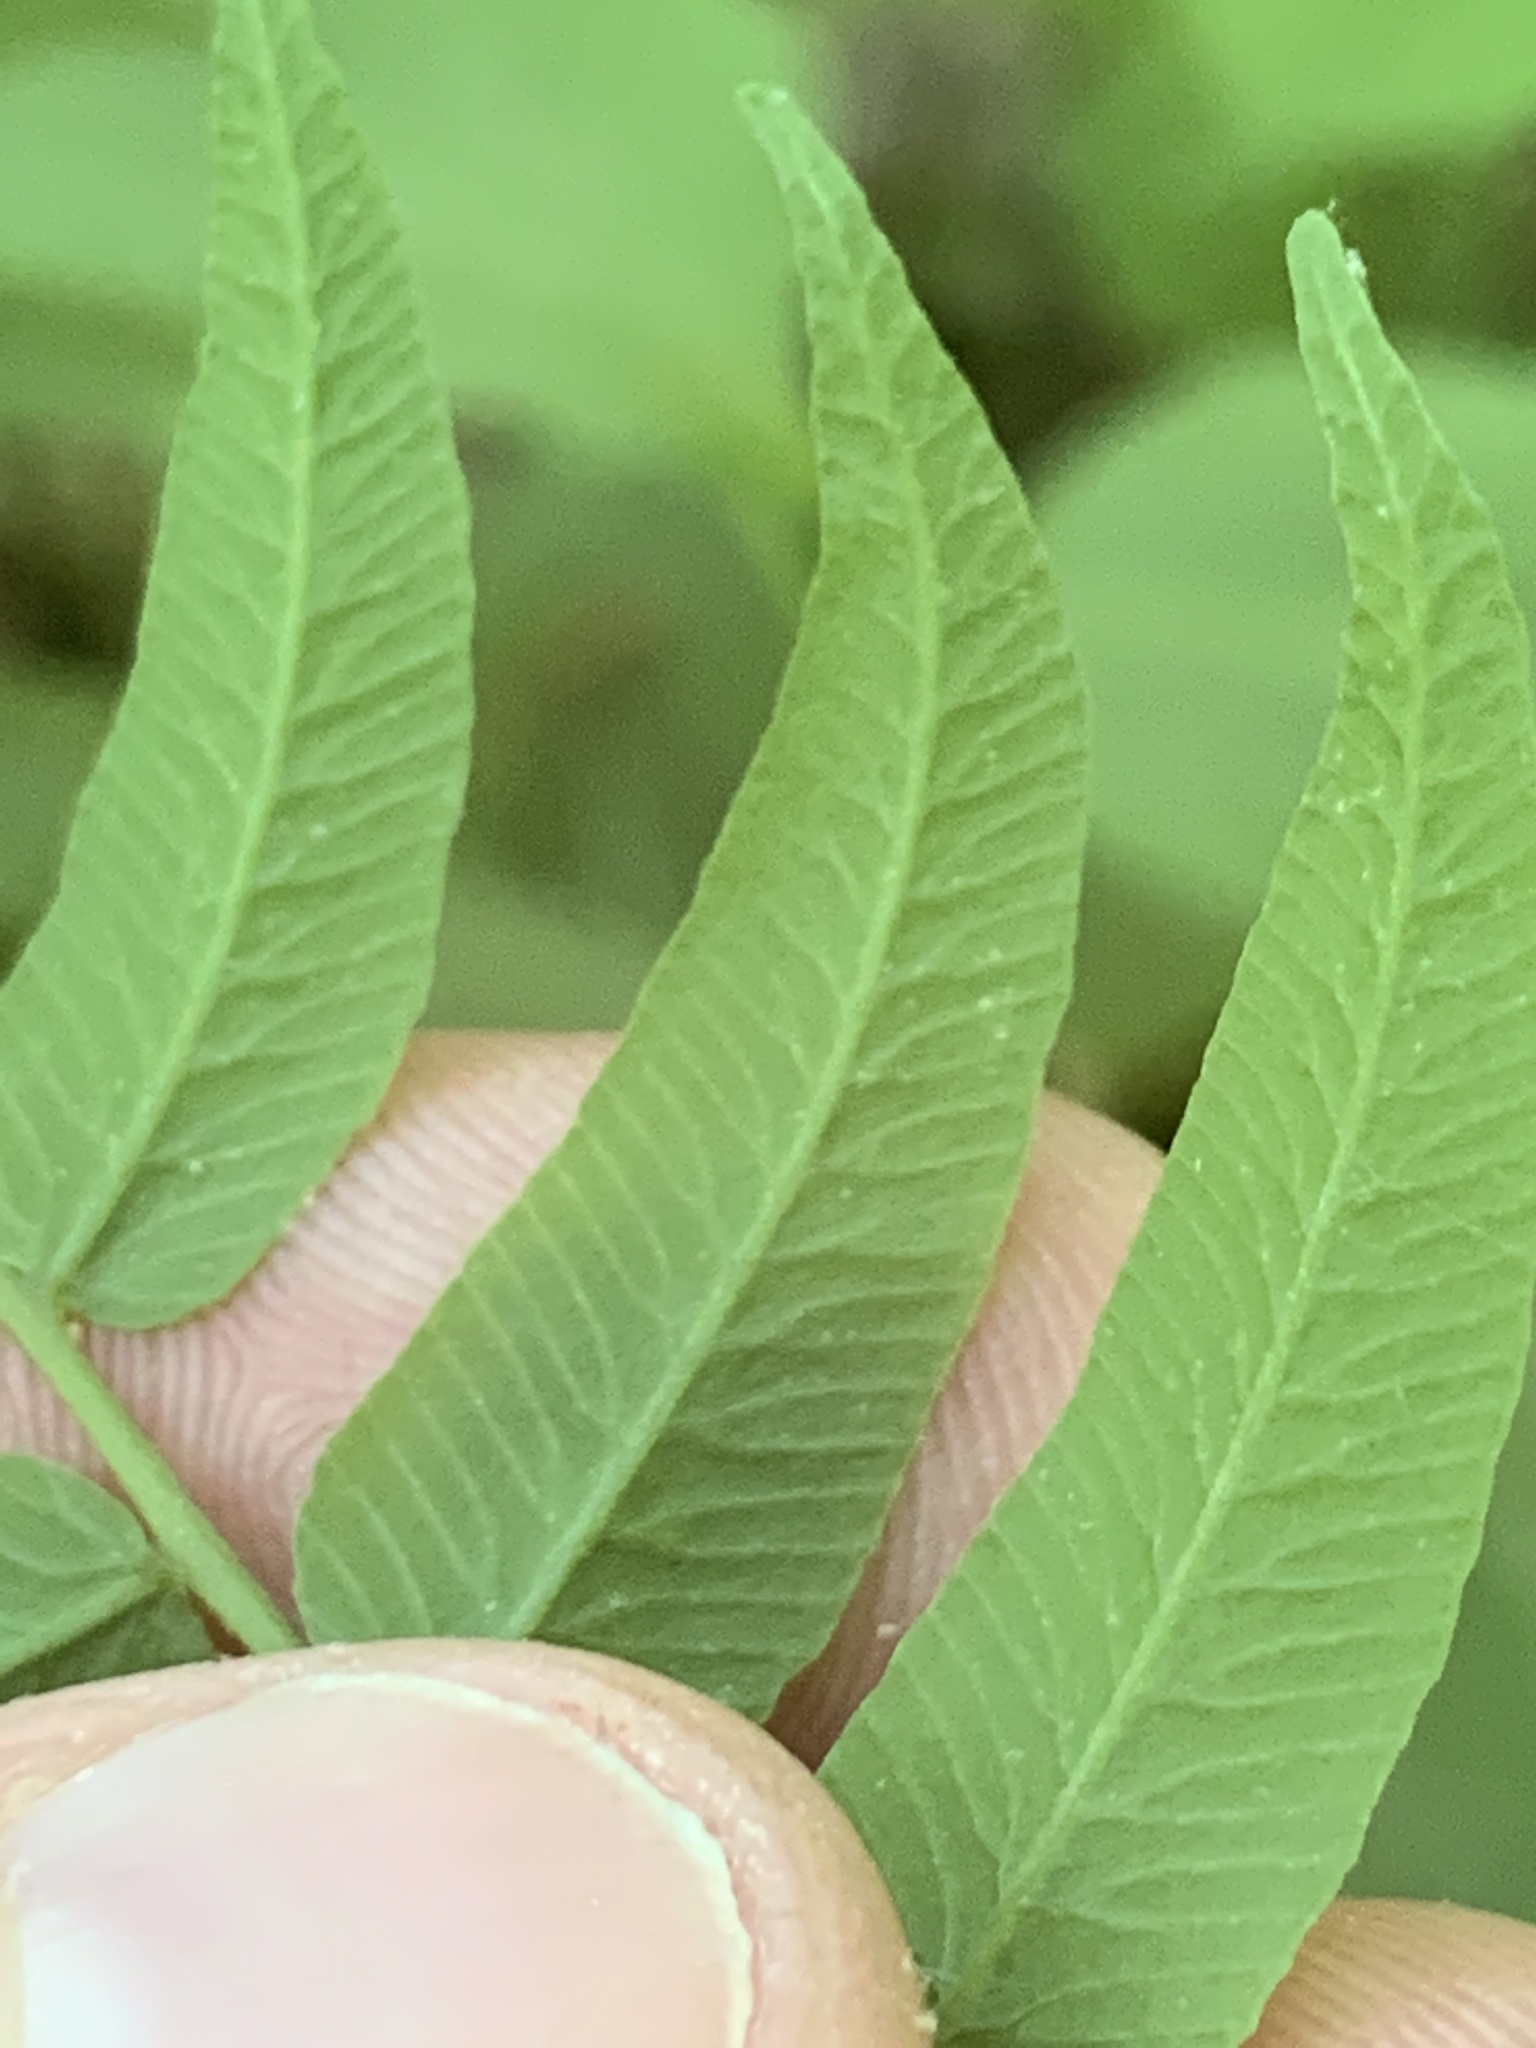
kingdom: Plantae
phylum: Tracheophyta
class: Polypodiopsida
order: Polypodiales
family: Diplaziopsidaceae
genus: Homalosorus
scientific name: Homalosorus pycnocarpos
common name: Glade fern
